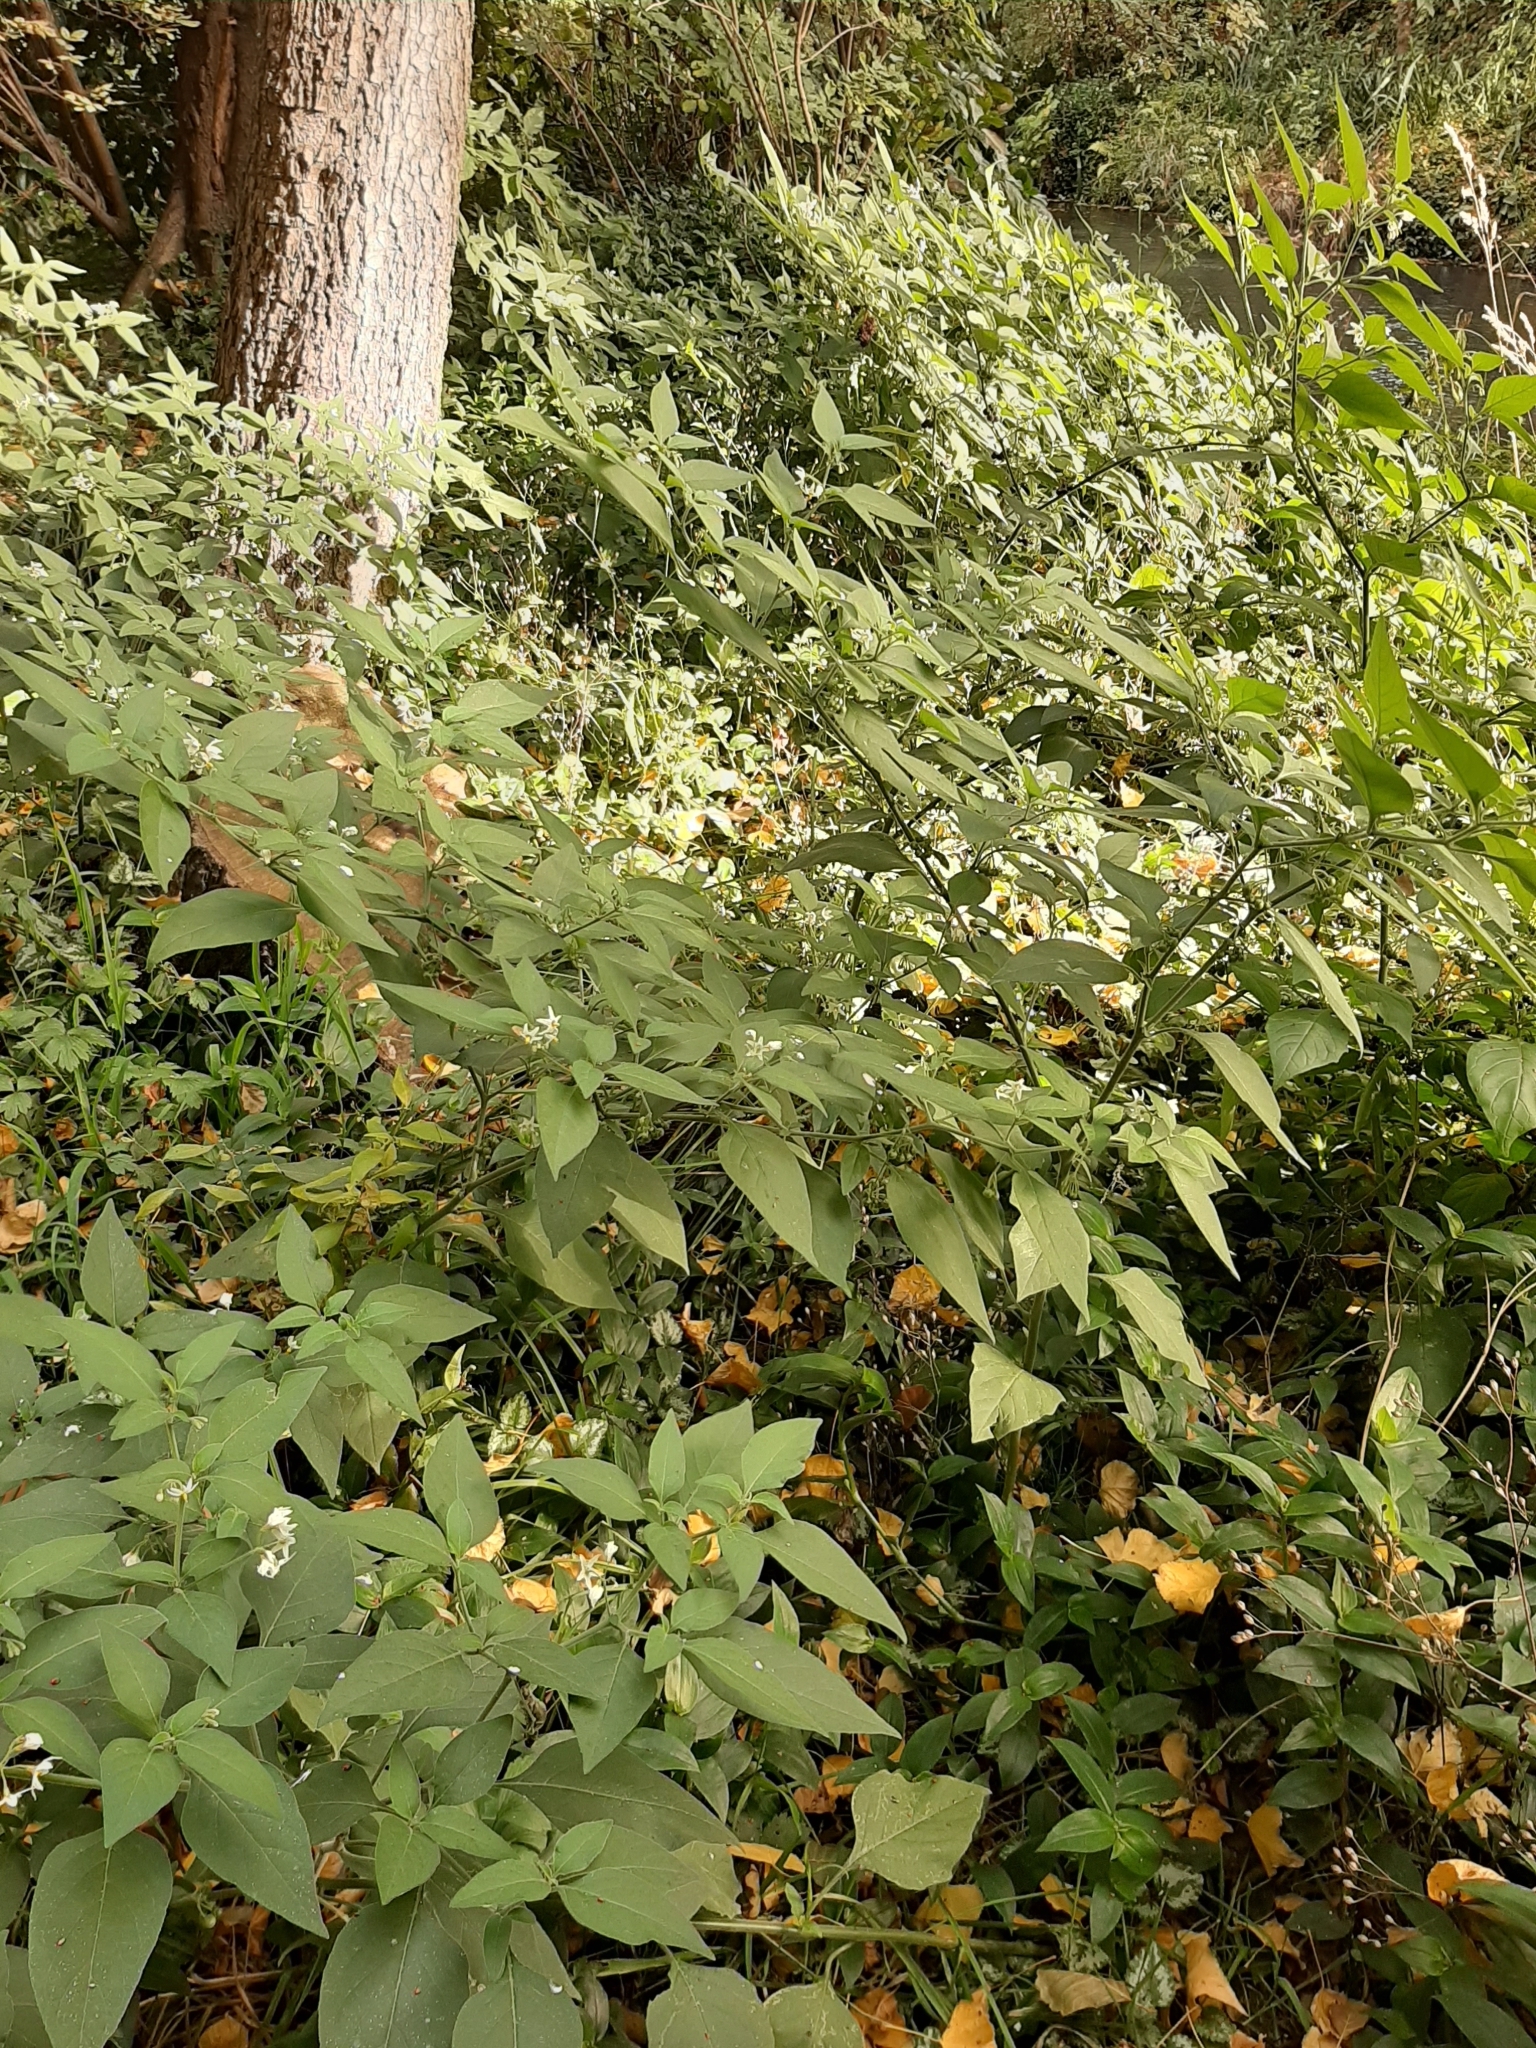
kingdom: Plantae
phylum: Tracheophyta
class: Magnoliopsida
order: Solanales
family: Solanaceae
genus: Solanum
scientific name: Solanum chenopodioides
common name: Tall nightshade
